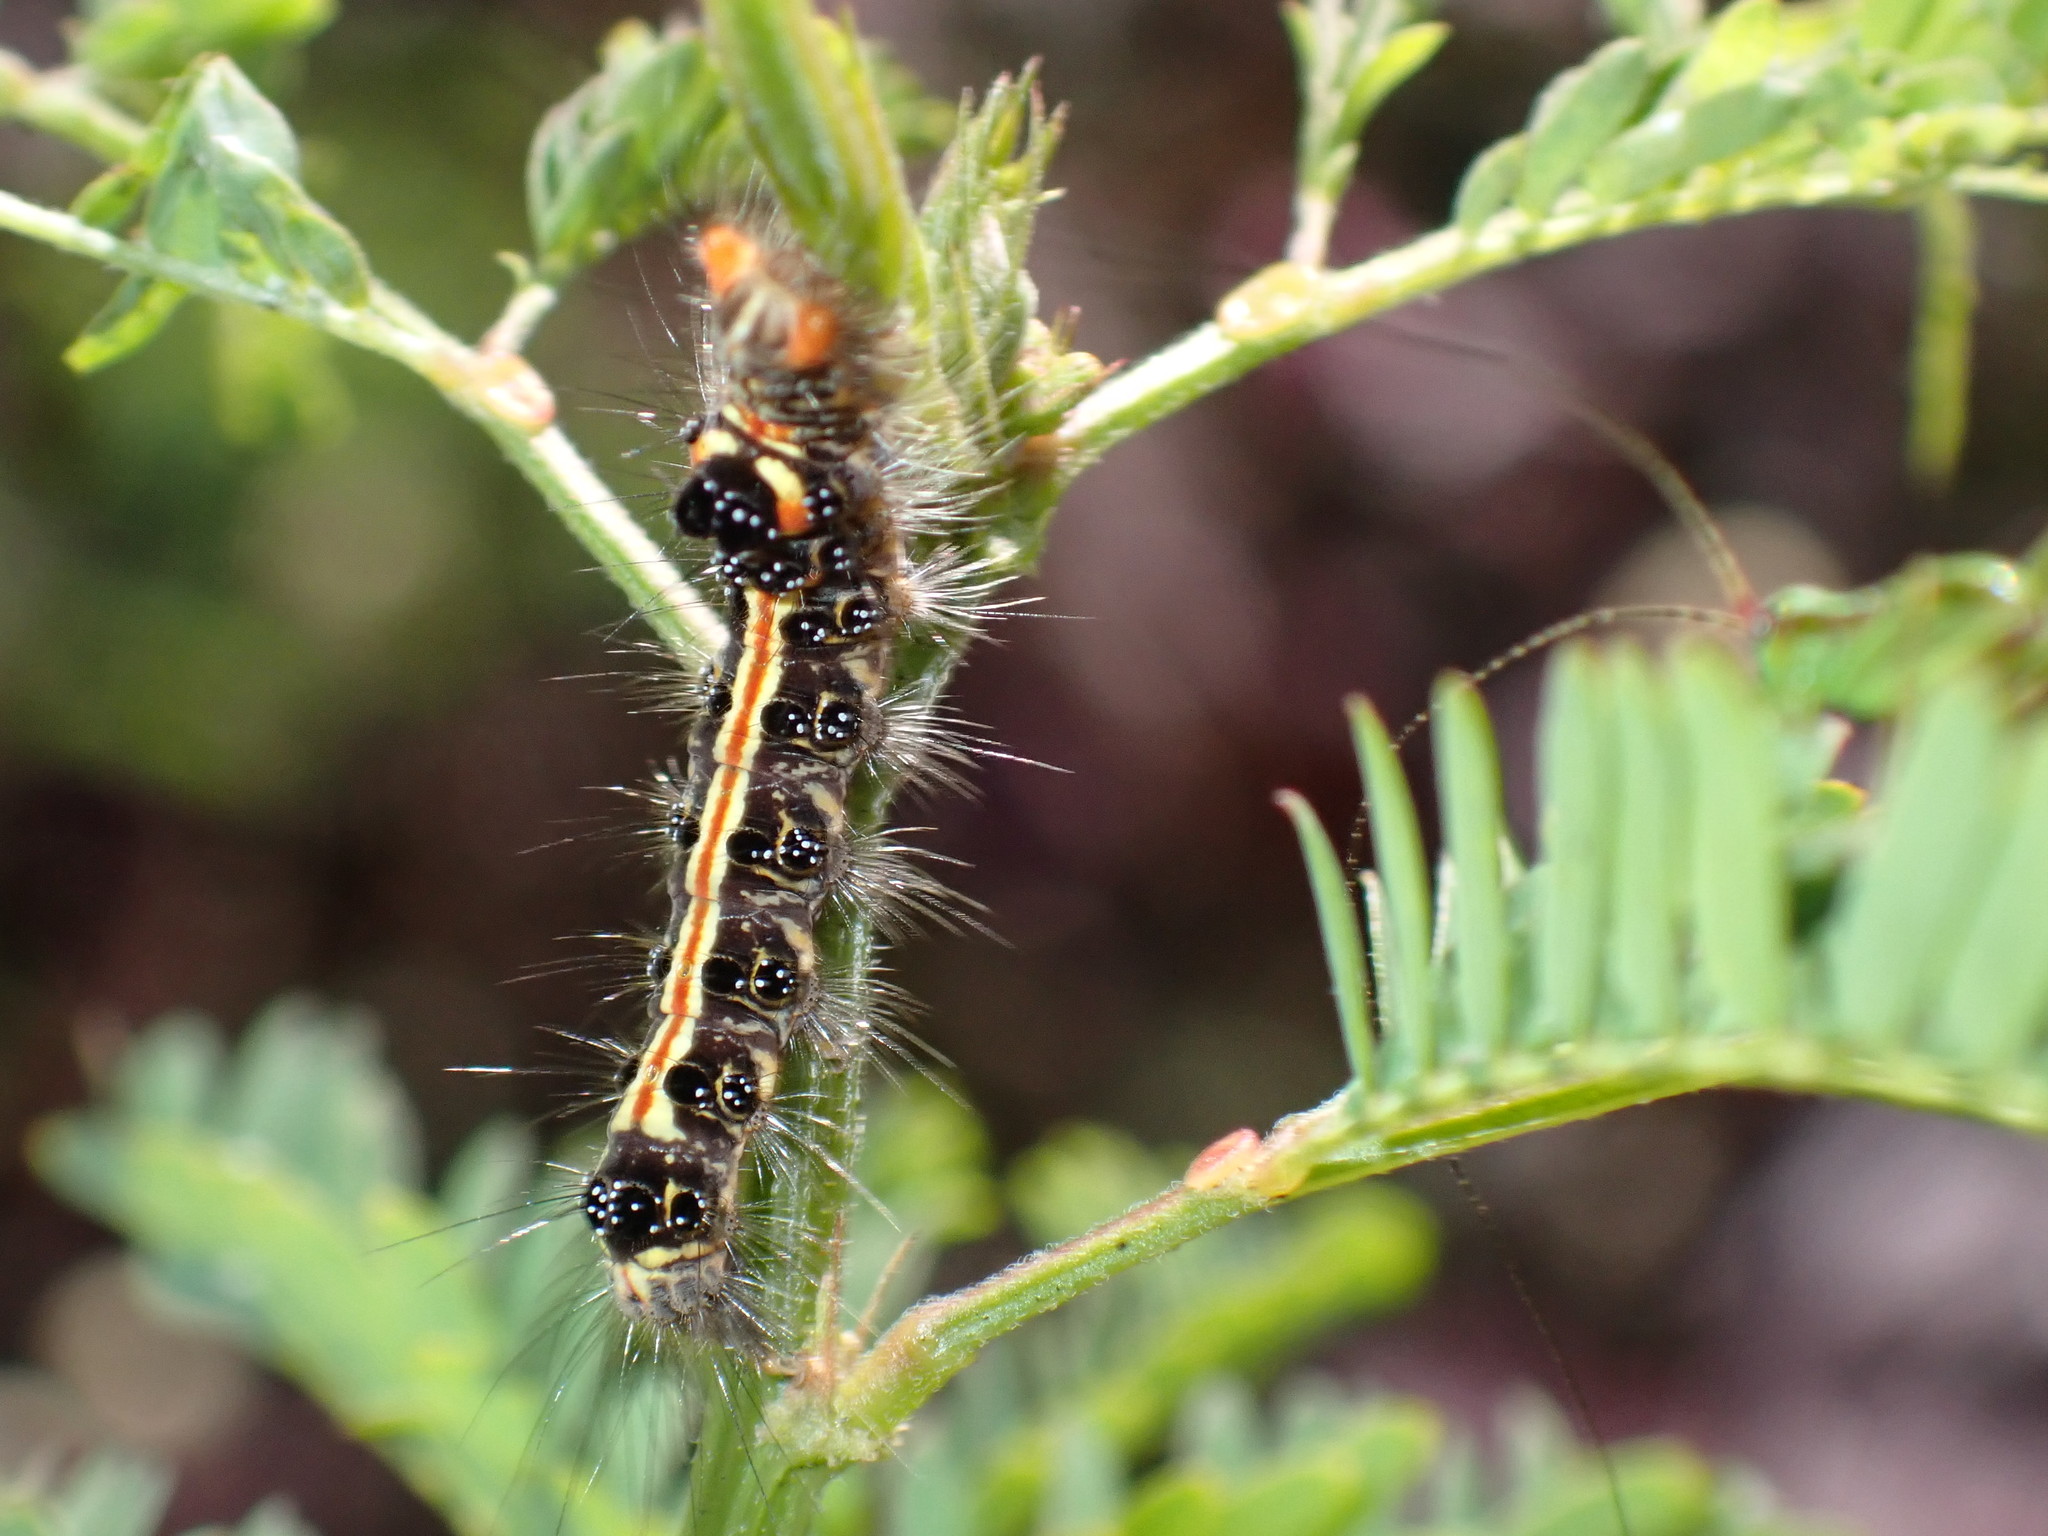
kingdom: Animalia
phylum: Arthropoda
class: Insecta
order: Lepidoptera
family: Erebidae
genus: Orvasca
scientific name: Orvasca subnotata
